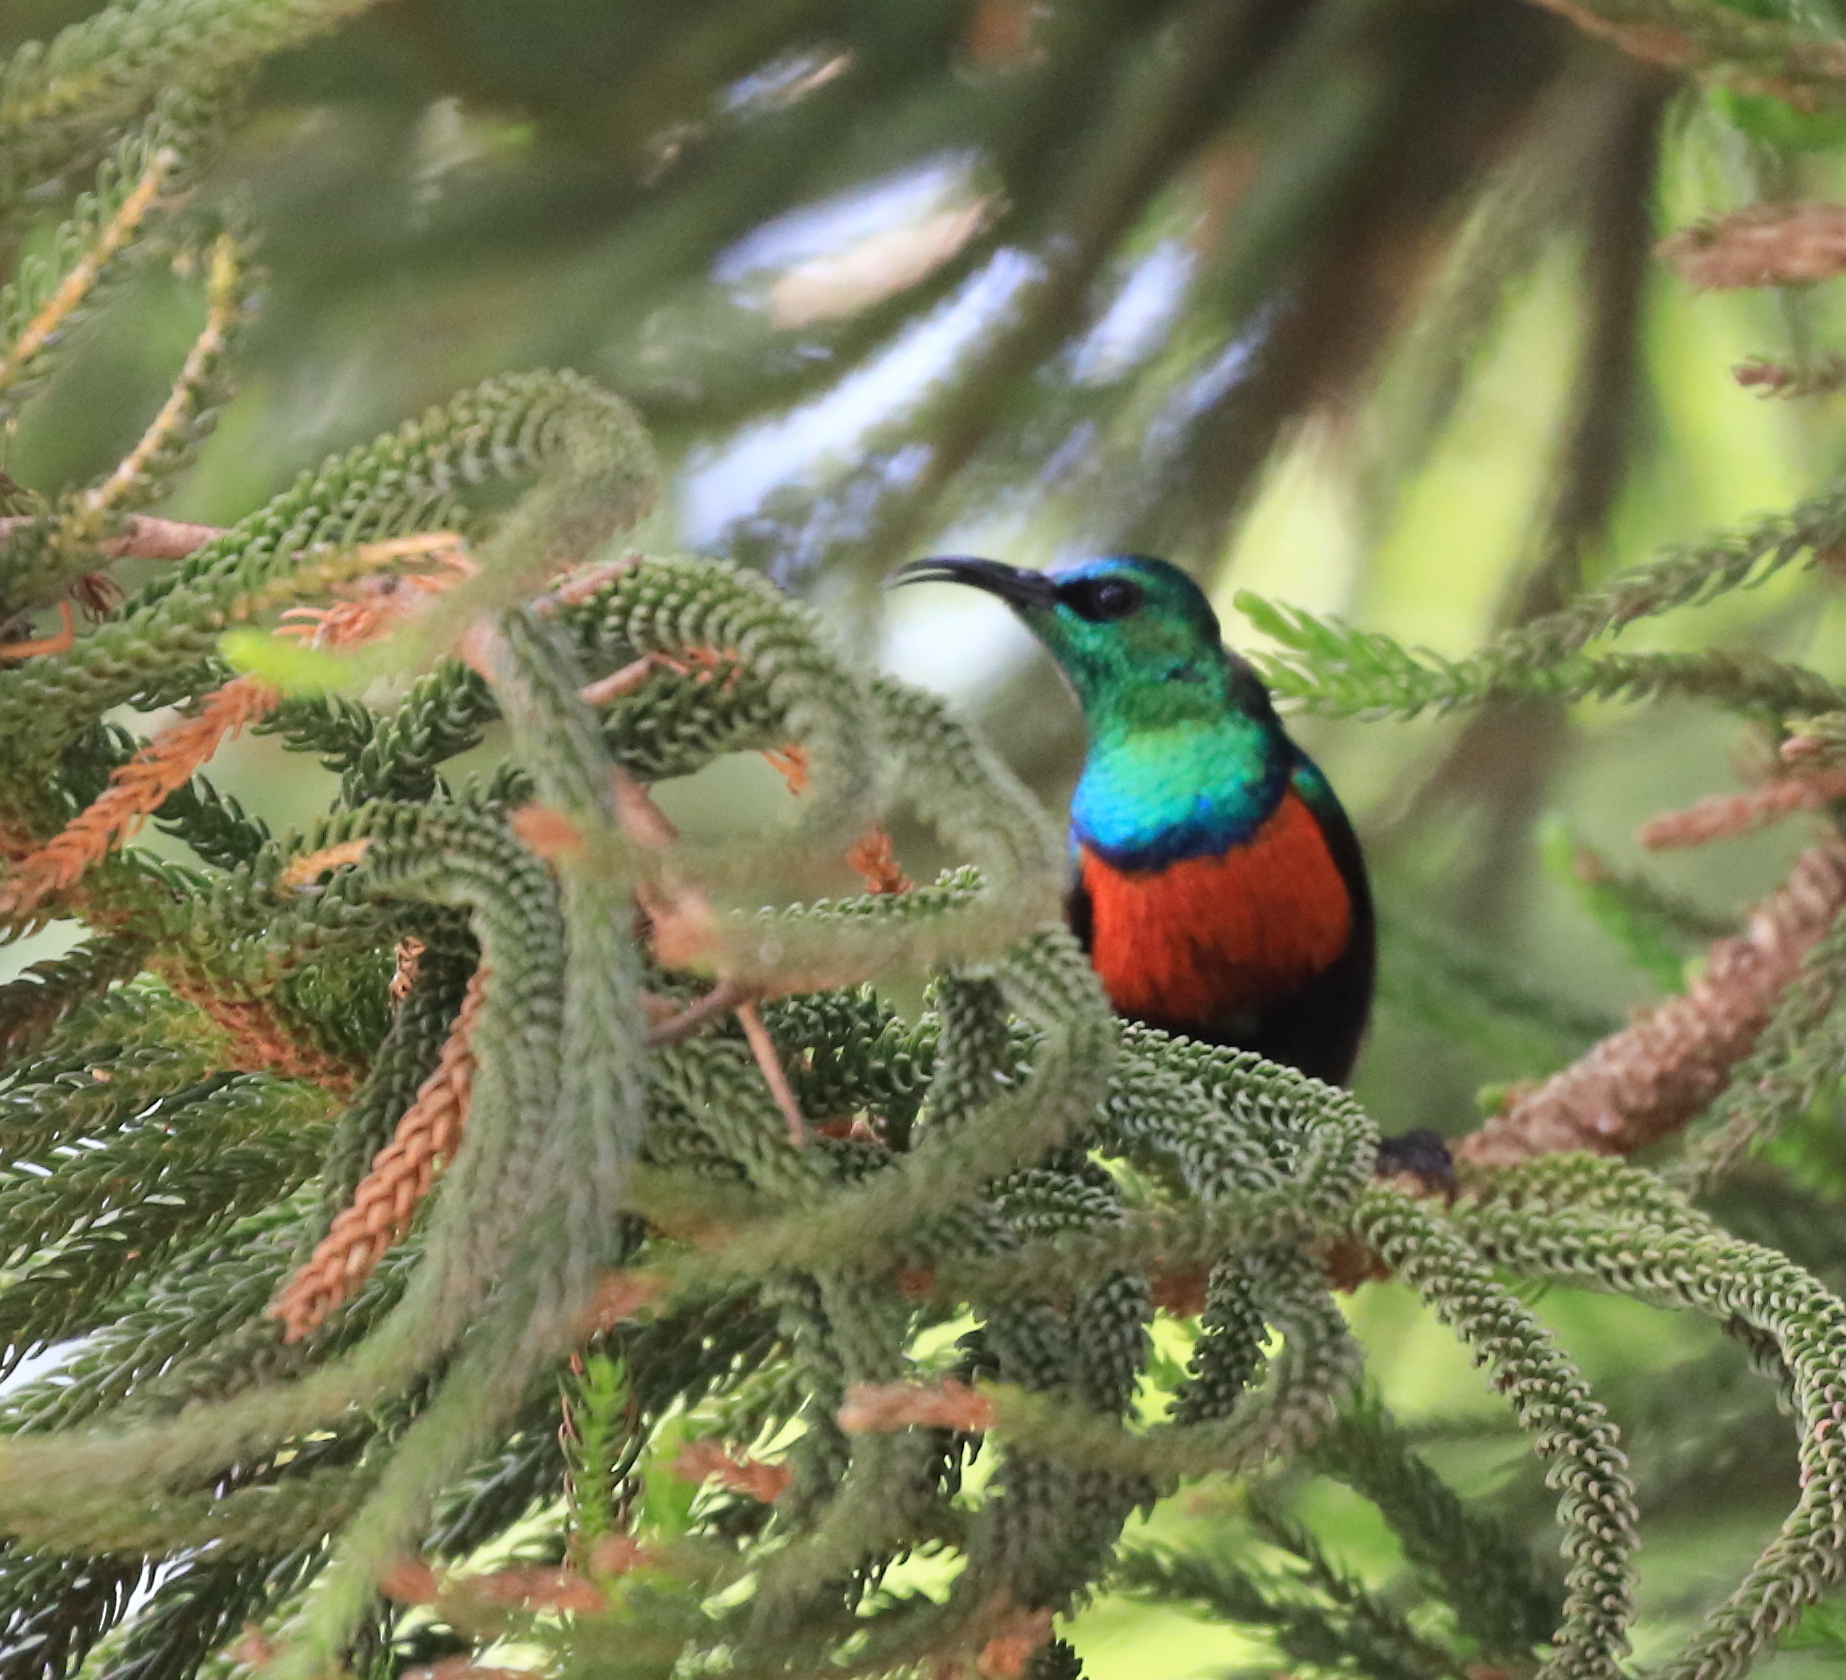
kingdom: Animalia
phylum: Chordata
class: Aves
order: Passeriformes
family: Nectariniidae
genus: Cinnyris
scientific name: Cinnyris mariquensis
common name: Marico sunbird
